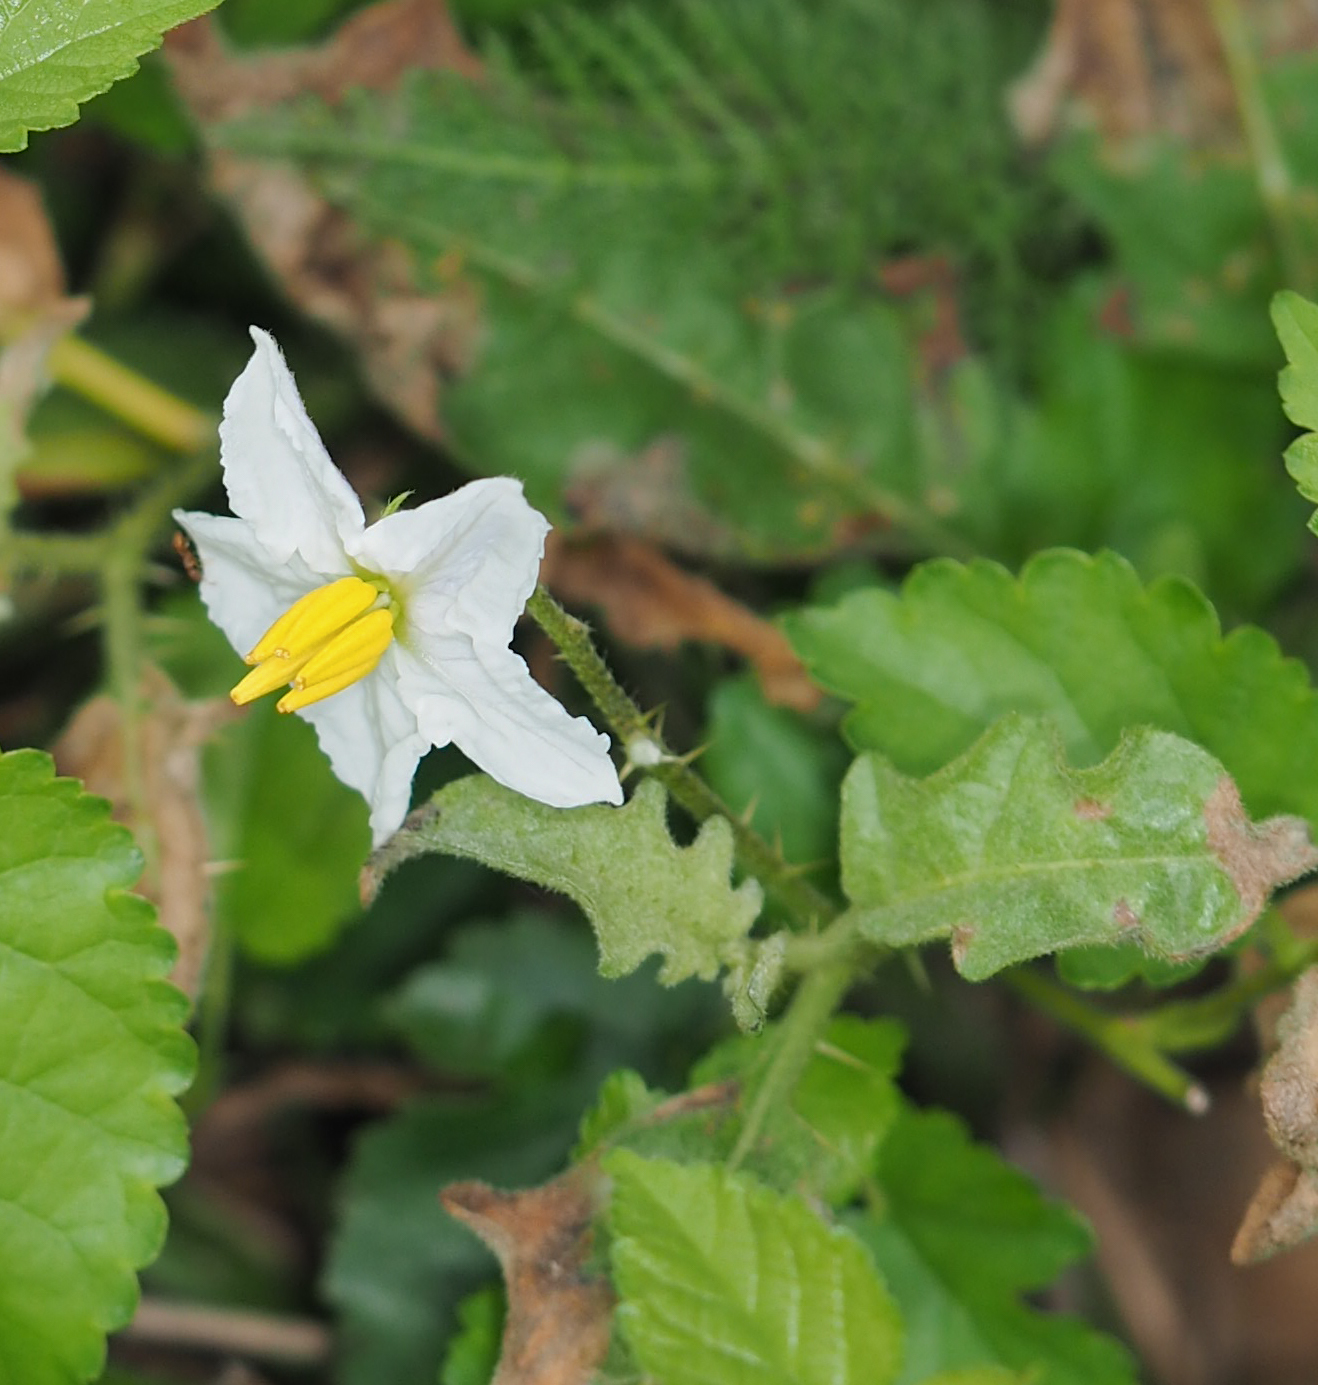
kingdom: Plantae
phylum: Tracheophyta
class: Magnoliopsida
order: Solanales
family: Solanaceae
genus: Solanum
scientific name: Solanum carolinense
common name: Horse-nettle
